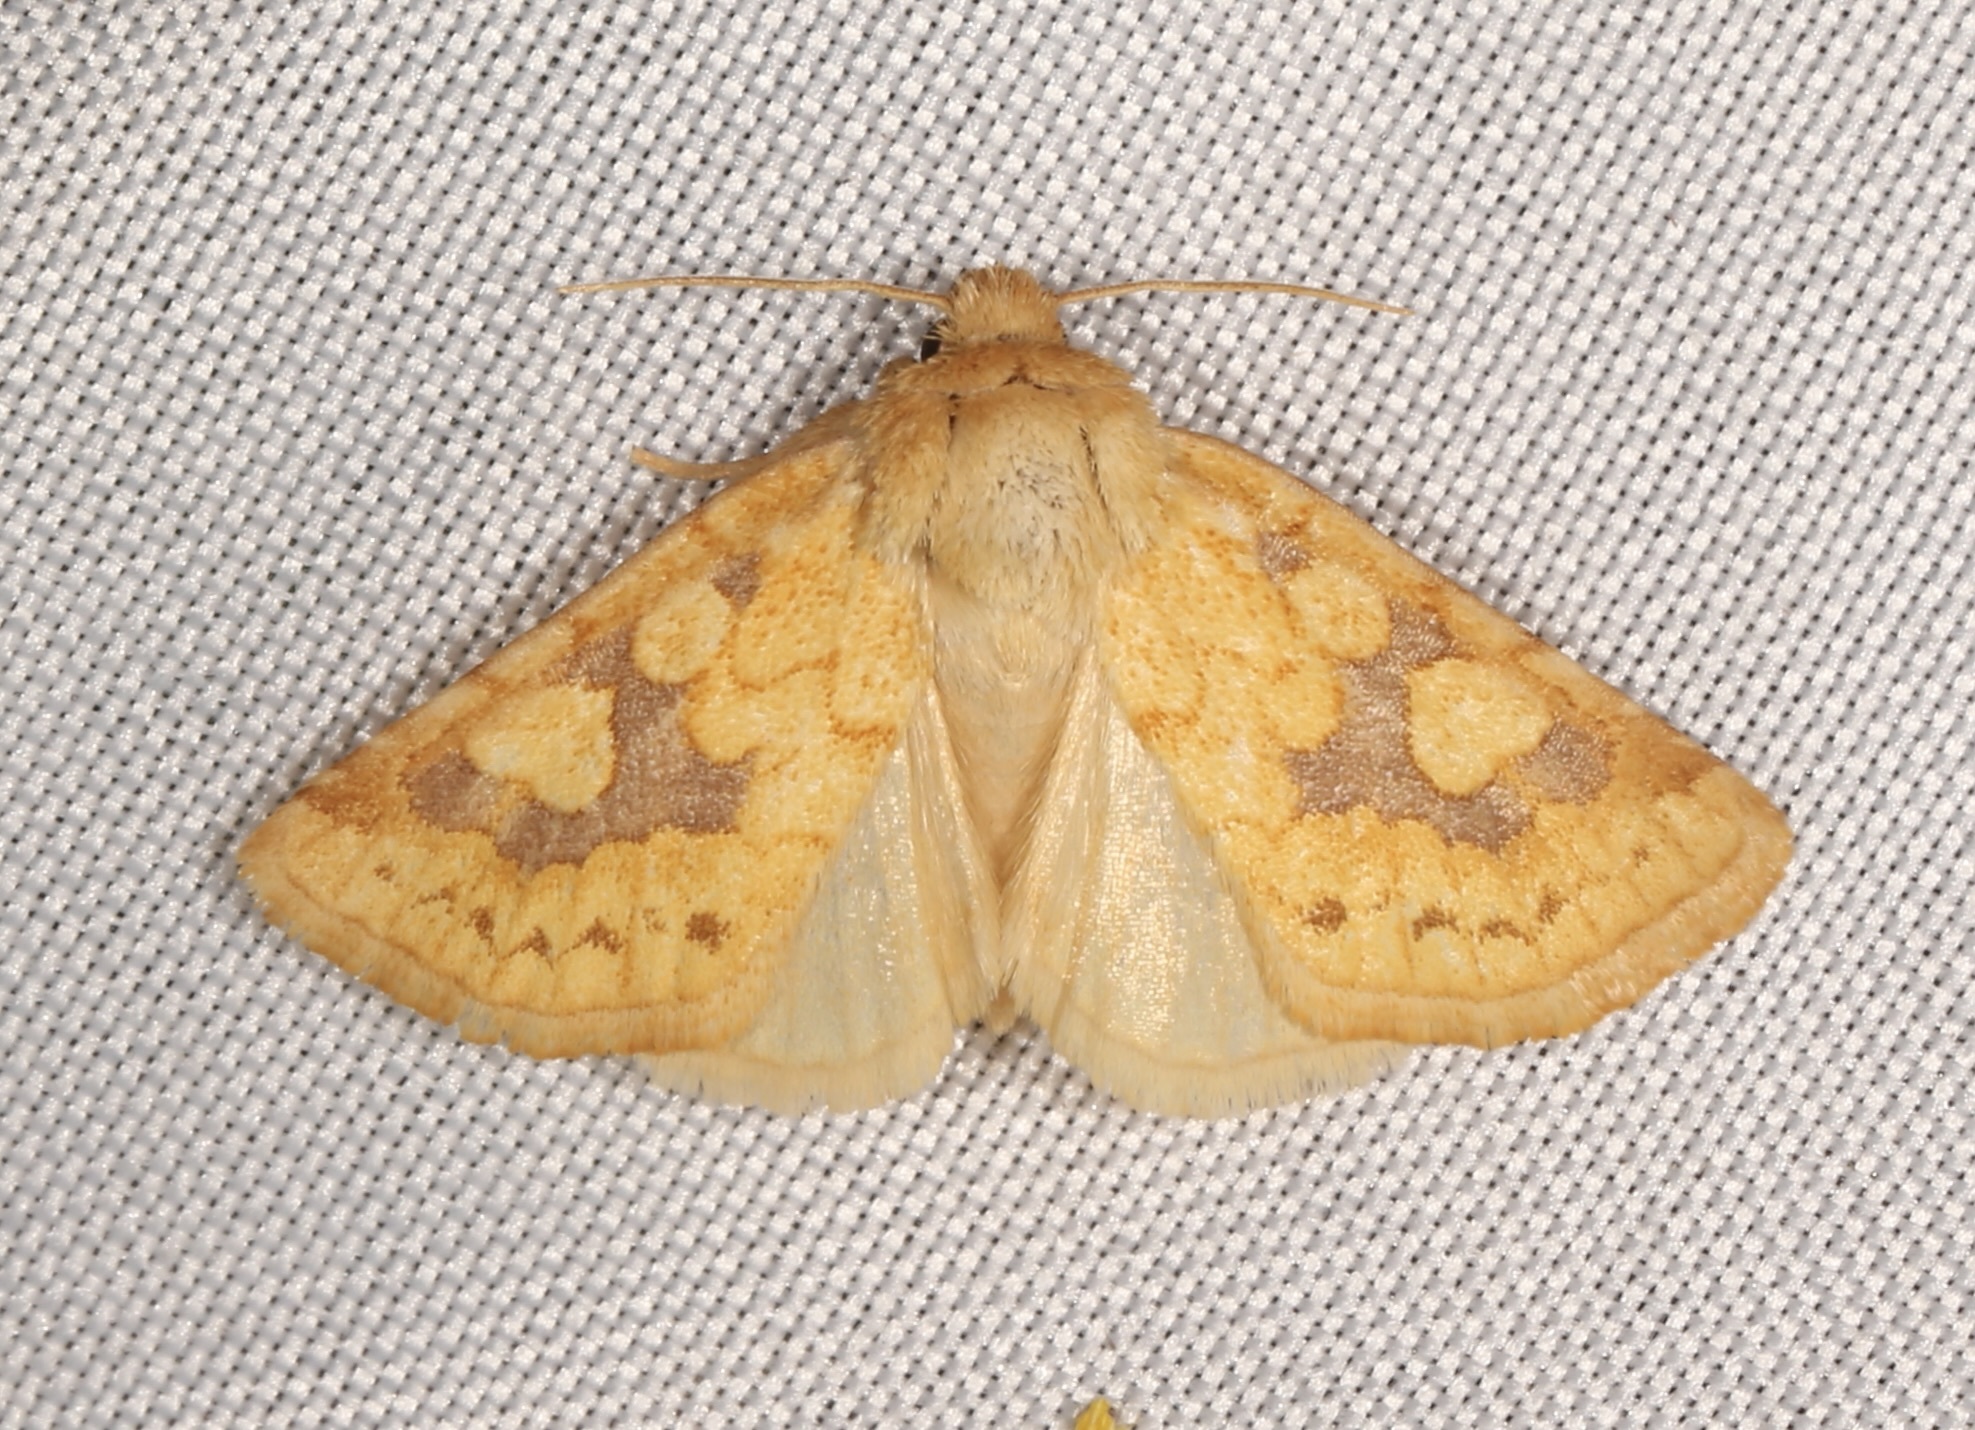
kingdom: Animalia
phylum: Arthropoda
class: Insecta
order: Lepidoptera
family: Noctuidae
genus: Nocloa
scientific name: Nocloa cordova
